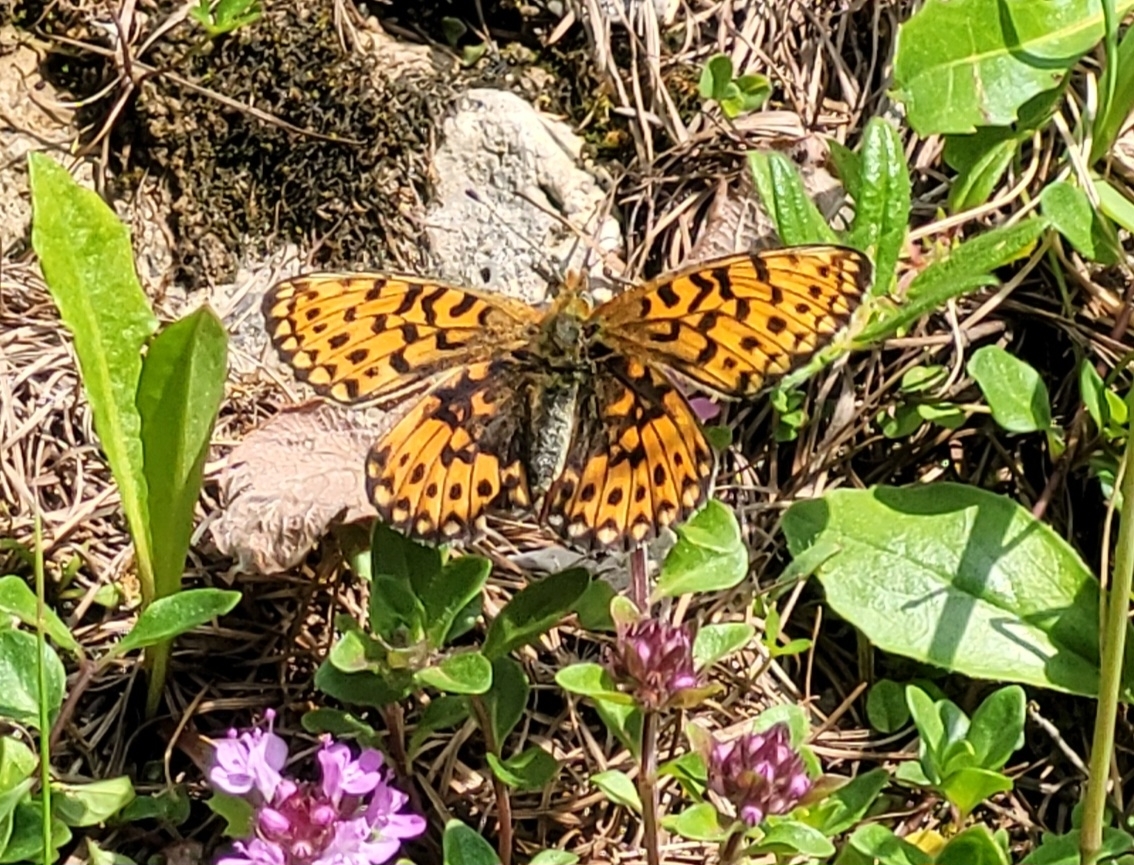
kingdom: Animalia
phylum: Arthropoda
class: Insecta
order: Lepidoptera
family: Nymphalidae
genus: Clossiana
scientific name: Clossiana euphrosyne
